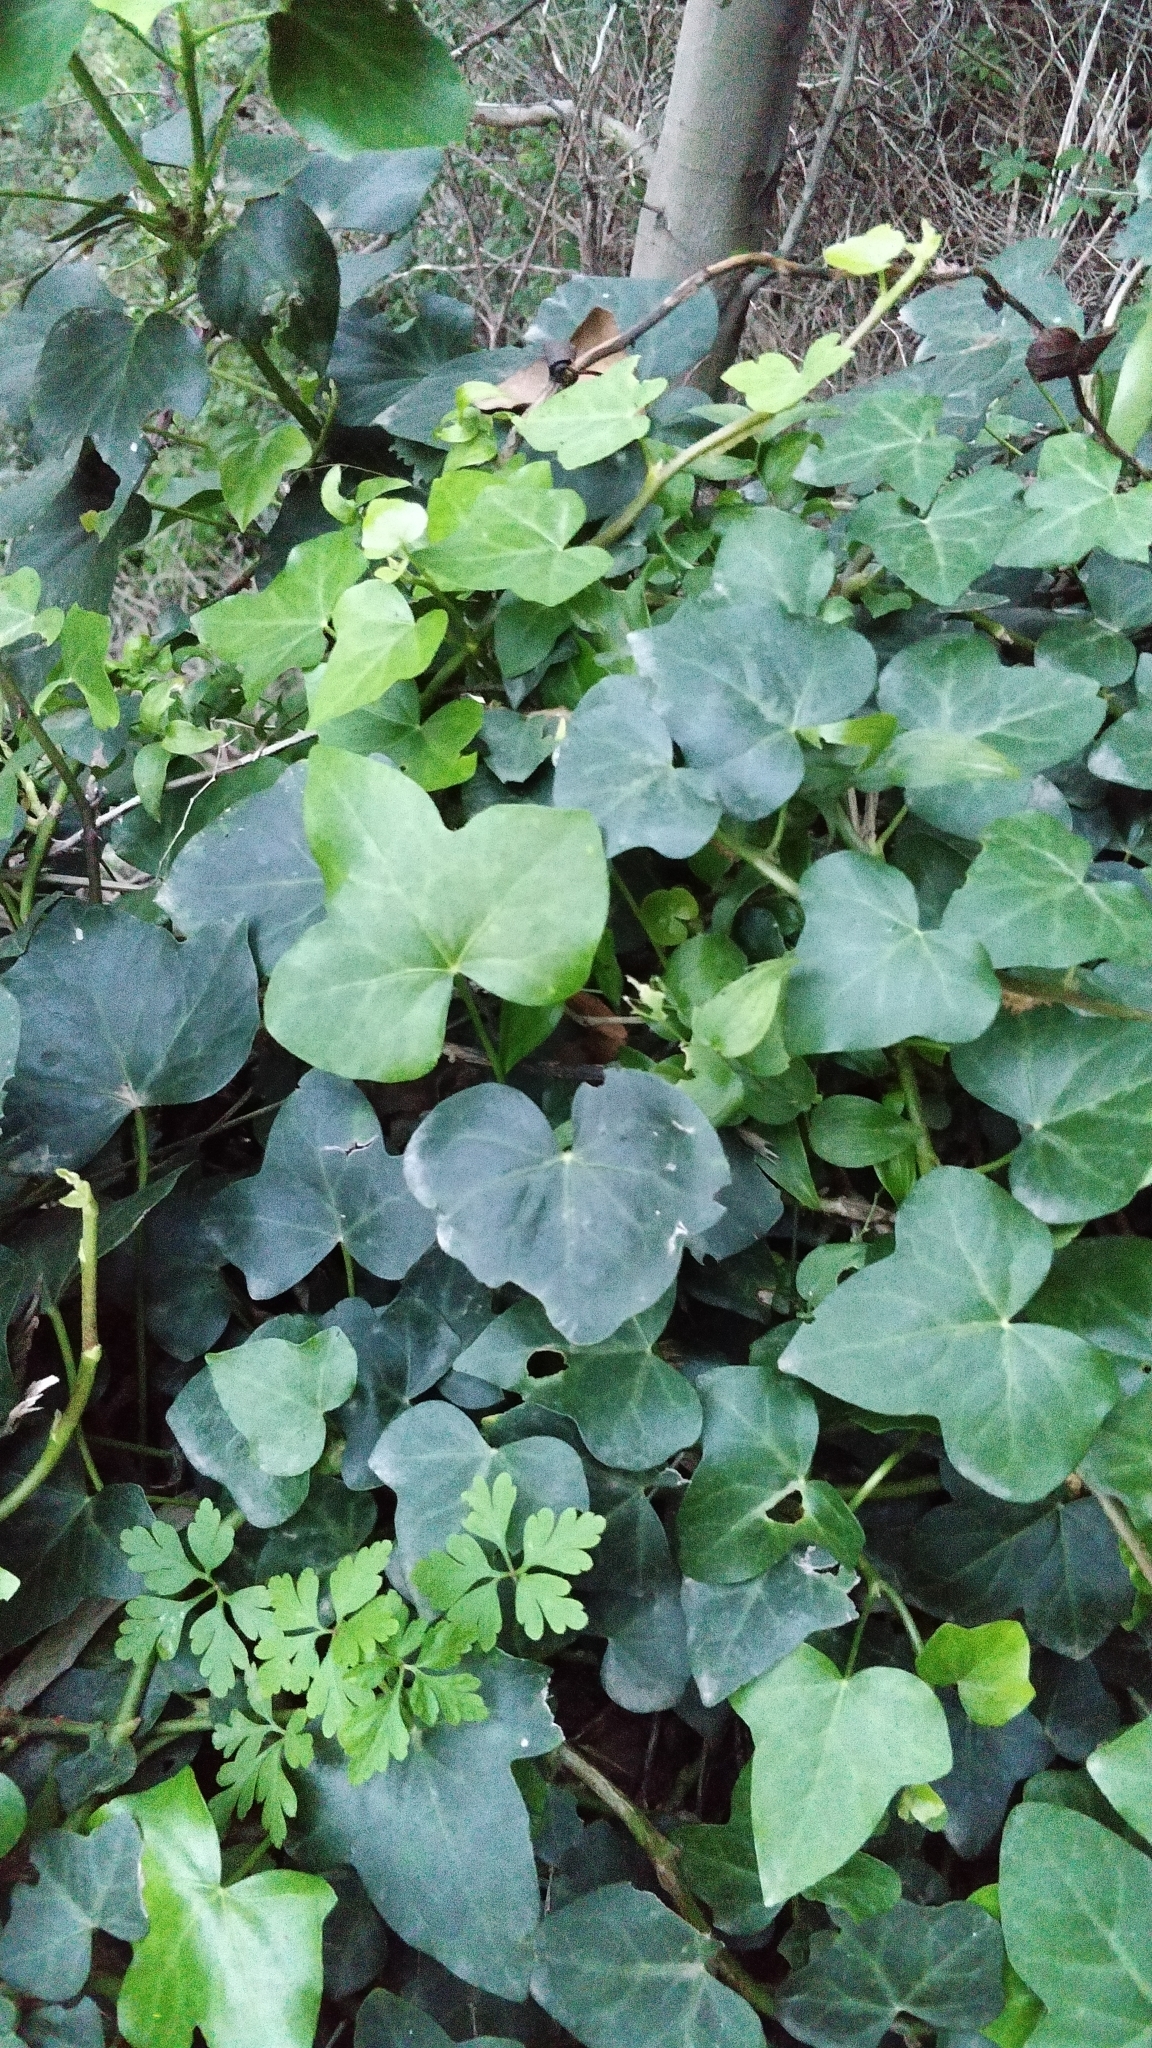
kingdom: Plantae
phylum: Tracheophyta
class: Magnoliopsida
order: Apiales
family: Araliaceae
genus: Hedera
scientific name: Hedera maderensis
